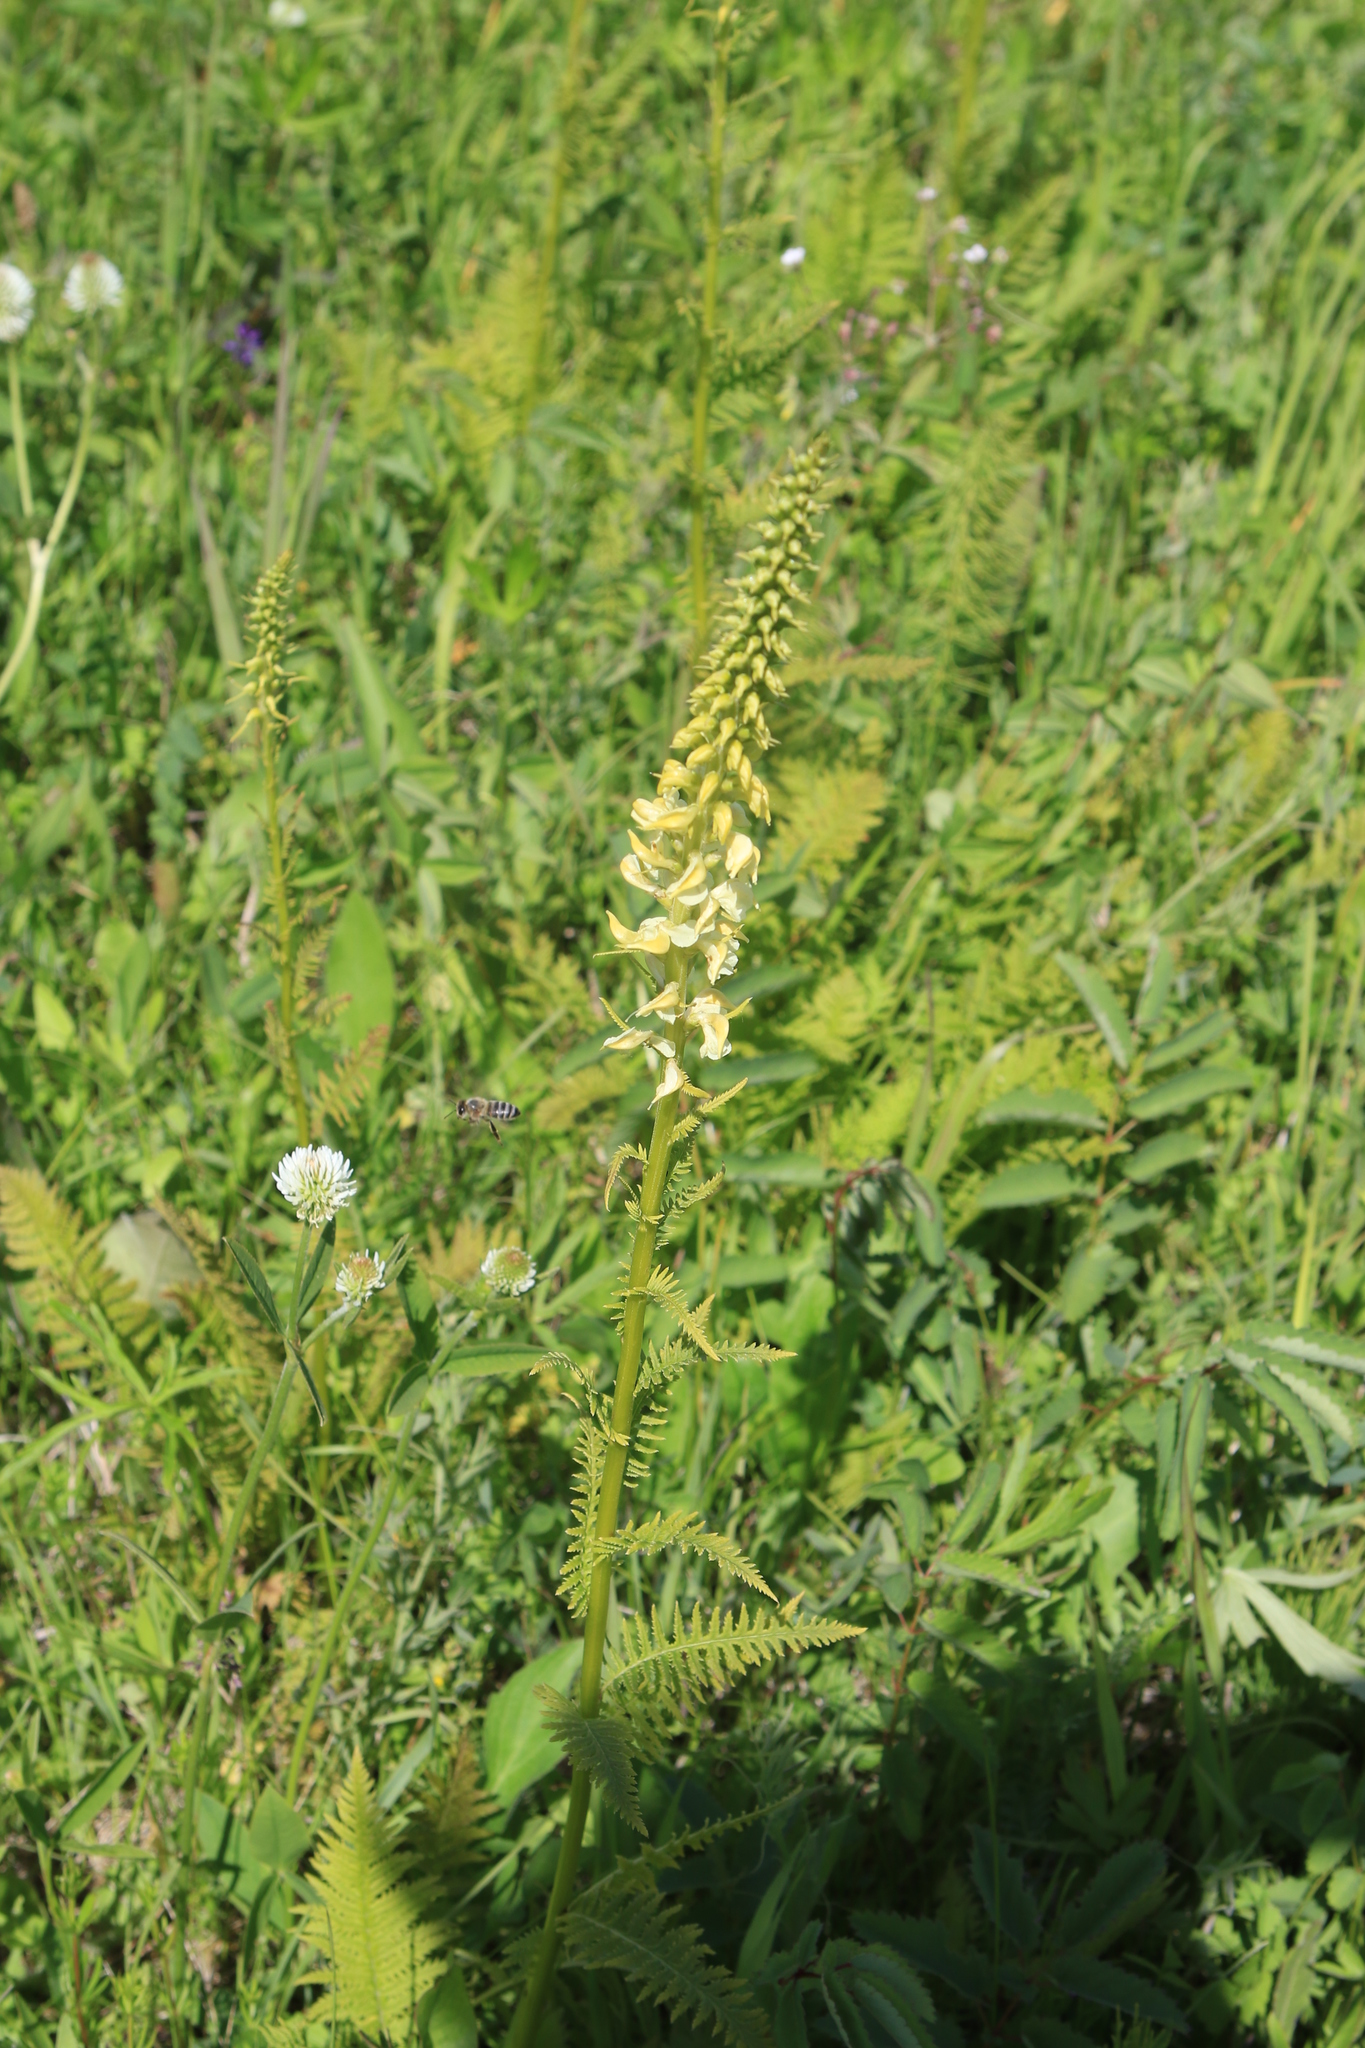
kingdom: Plantae
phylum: Tracheophyta
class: Magnoliopsida
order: Lamiales
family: Orobanchaceae
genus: Pedicularis
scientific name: Pedicularis incarnata
